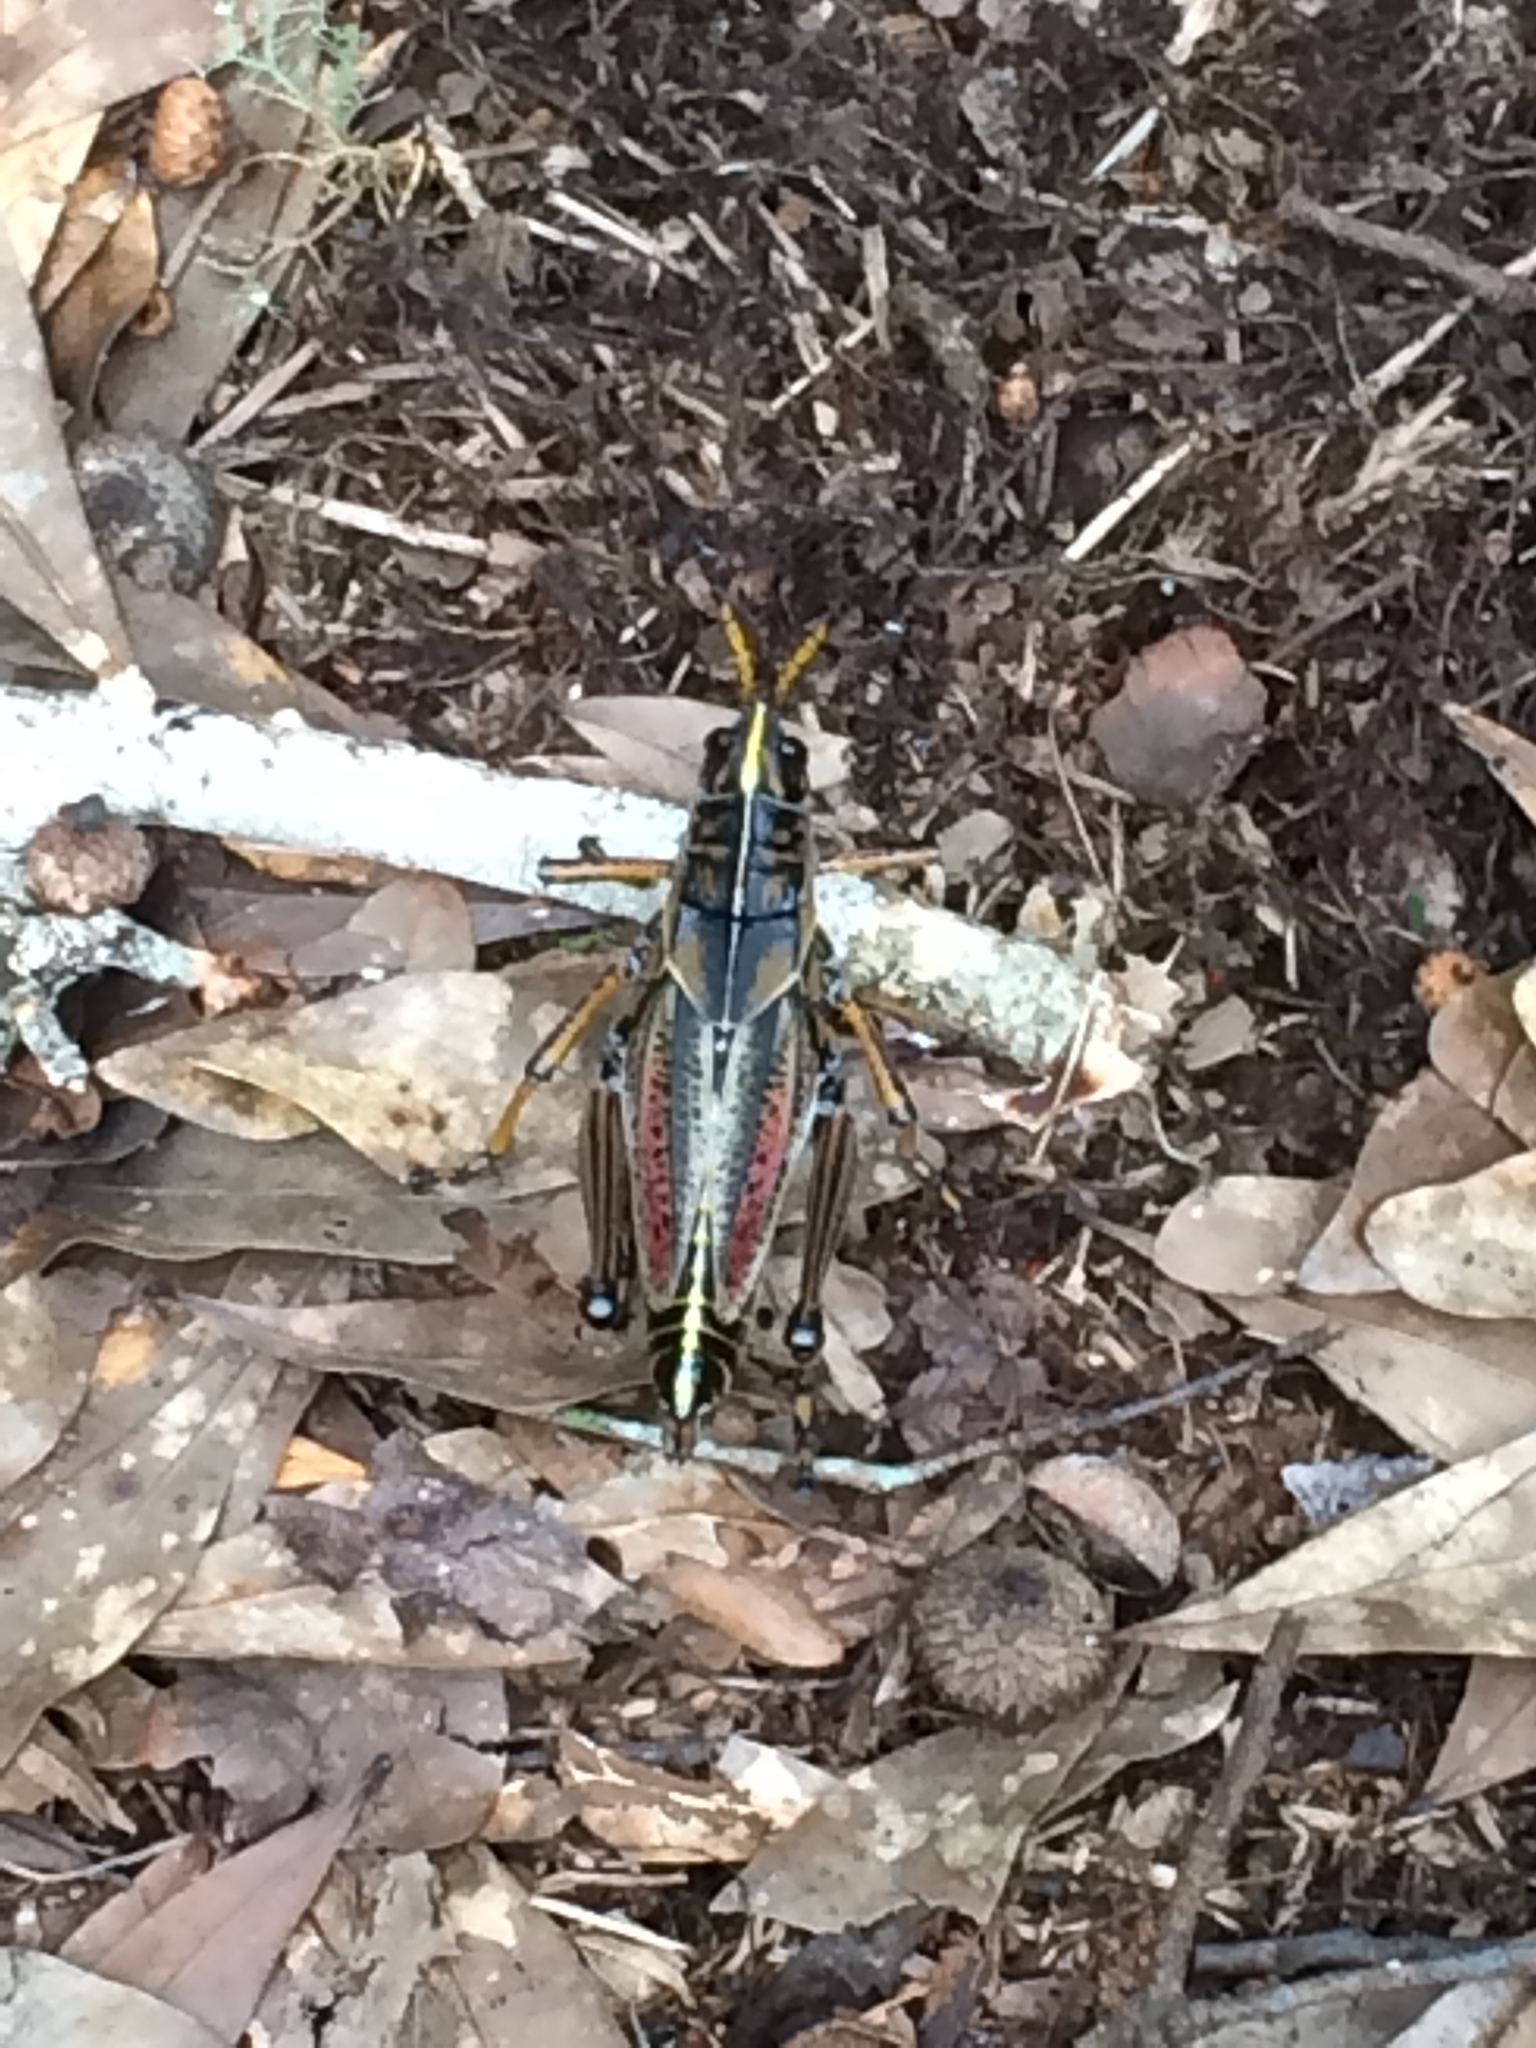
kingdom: Animalia
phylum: Arthropoda
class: Insecta
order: Orthoptera
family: Romaleidae
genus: Romalea
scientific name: Romalea microptera
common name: Eastern lubber grasshopper
